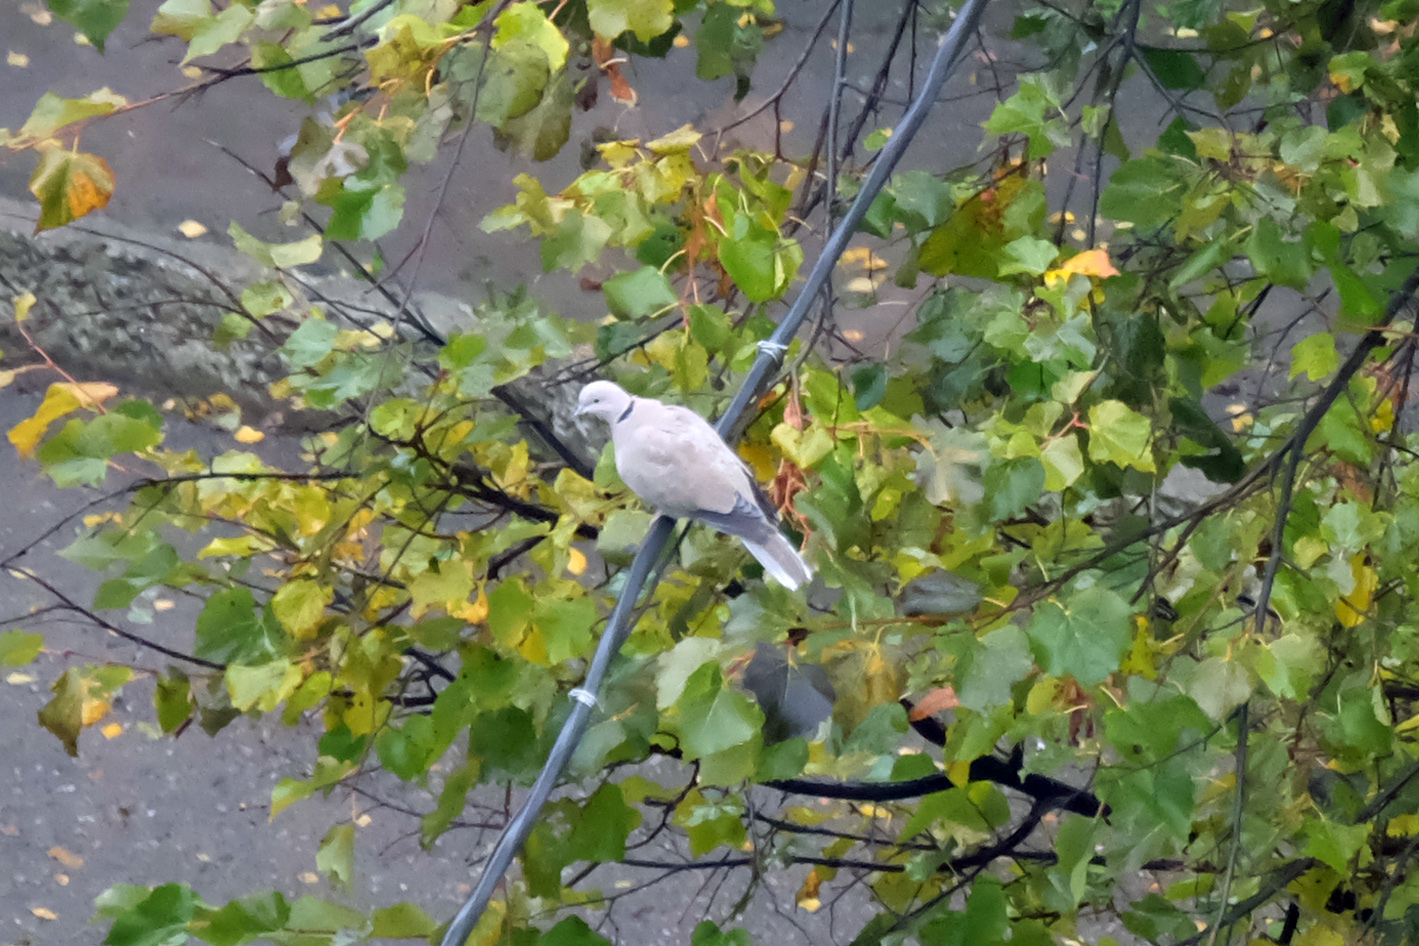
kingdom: Animalia
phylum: Chordata
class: Aves
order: Columbiformes
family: Columbidae
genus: Streptopelia
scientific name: Streptopelia decaocto
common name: Eurasian collared dove
